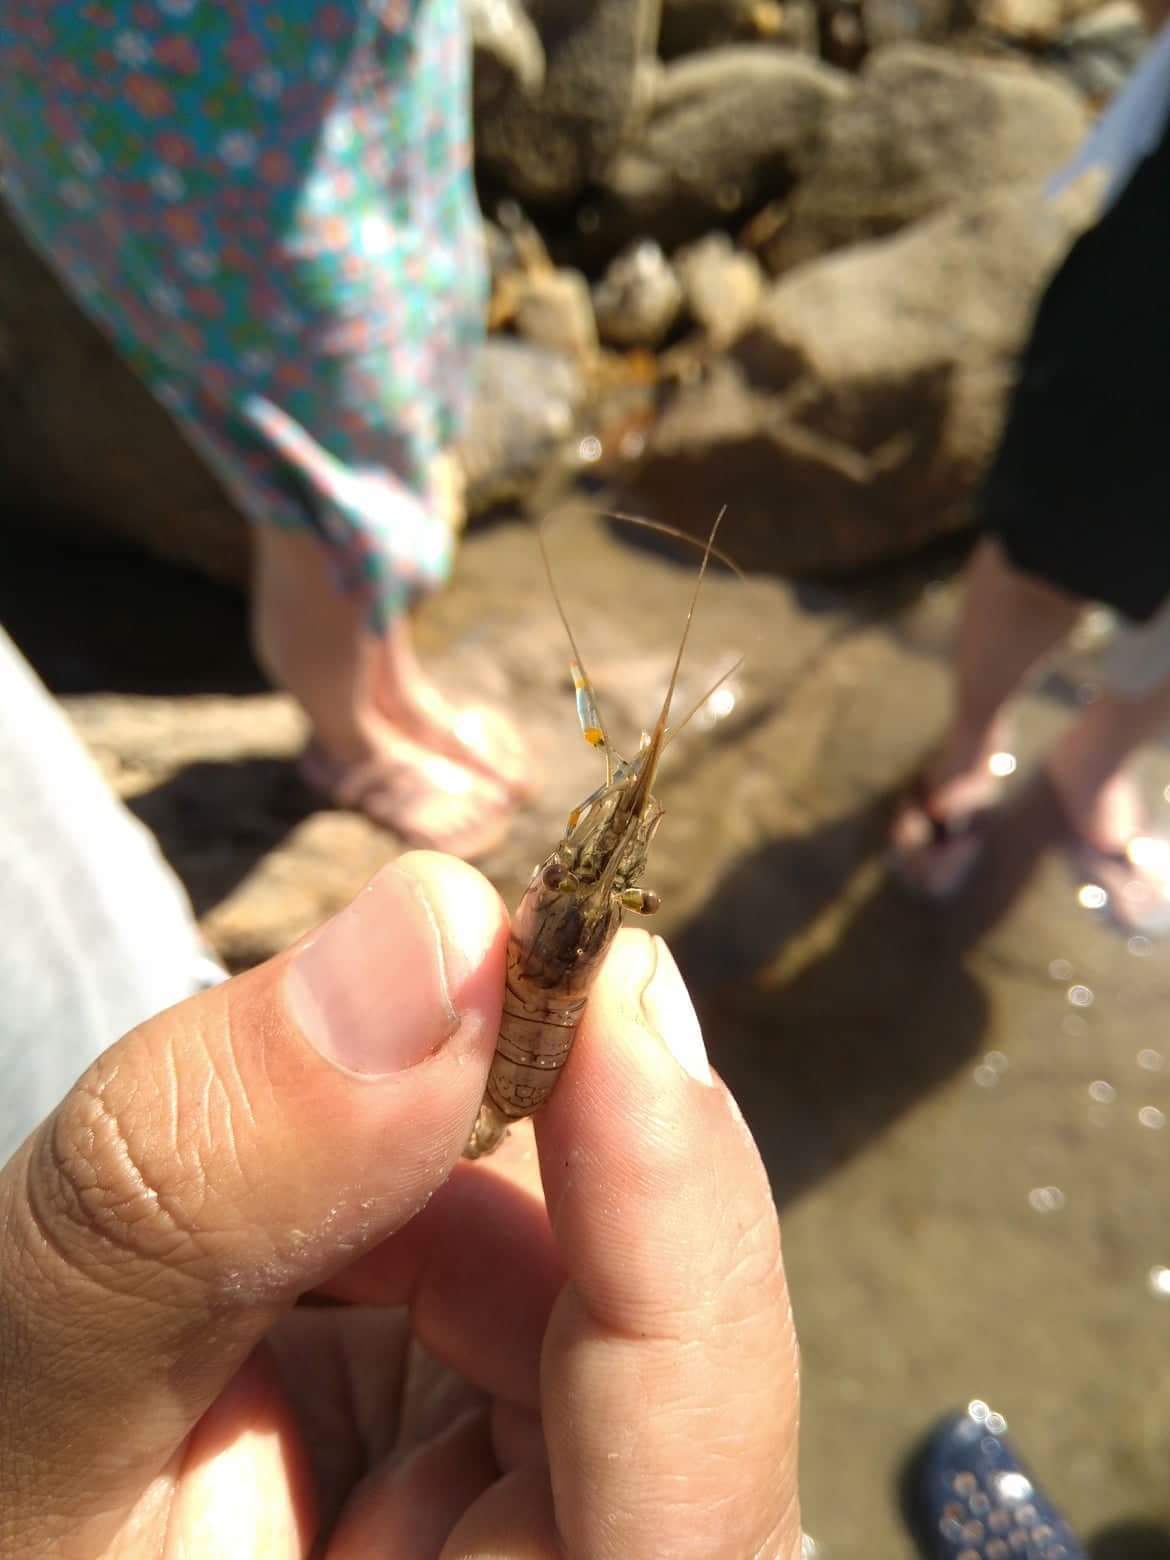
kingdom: Animalia
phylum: Arthropoda
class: Malacostraca
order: Decapoda
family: Palaemonidae
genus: Palaemon
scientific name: Palaemon elegans
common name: Grass prawm
